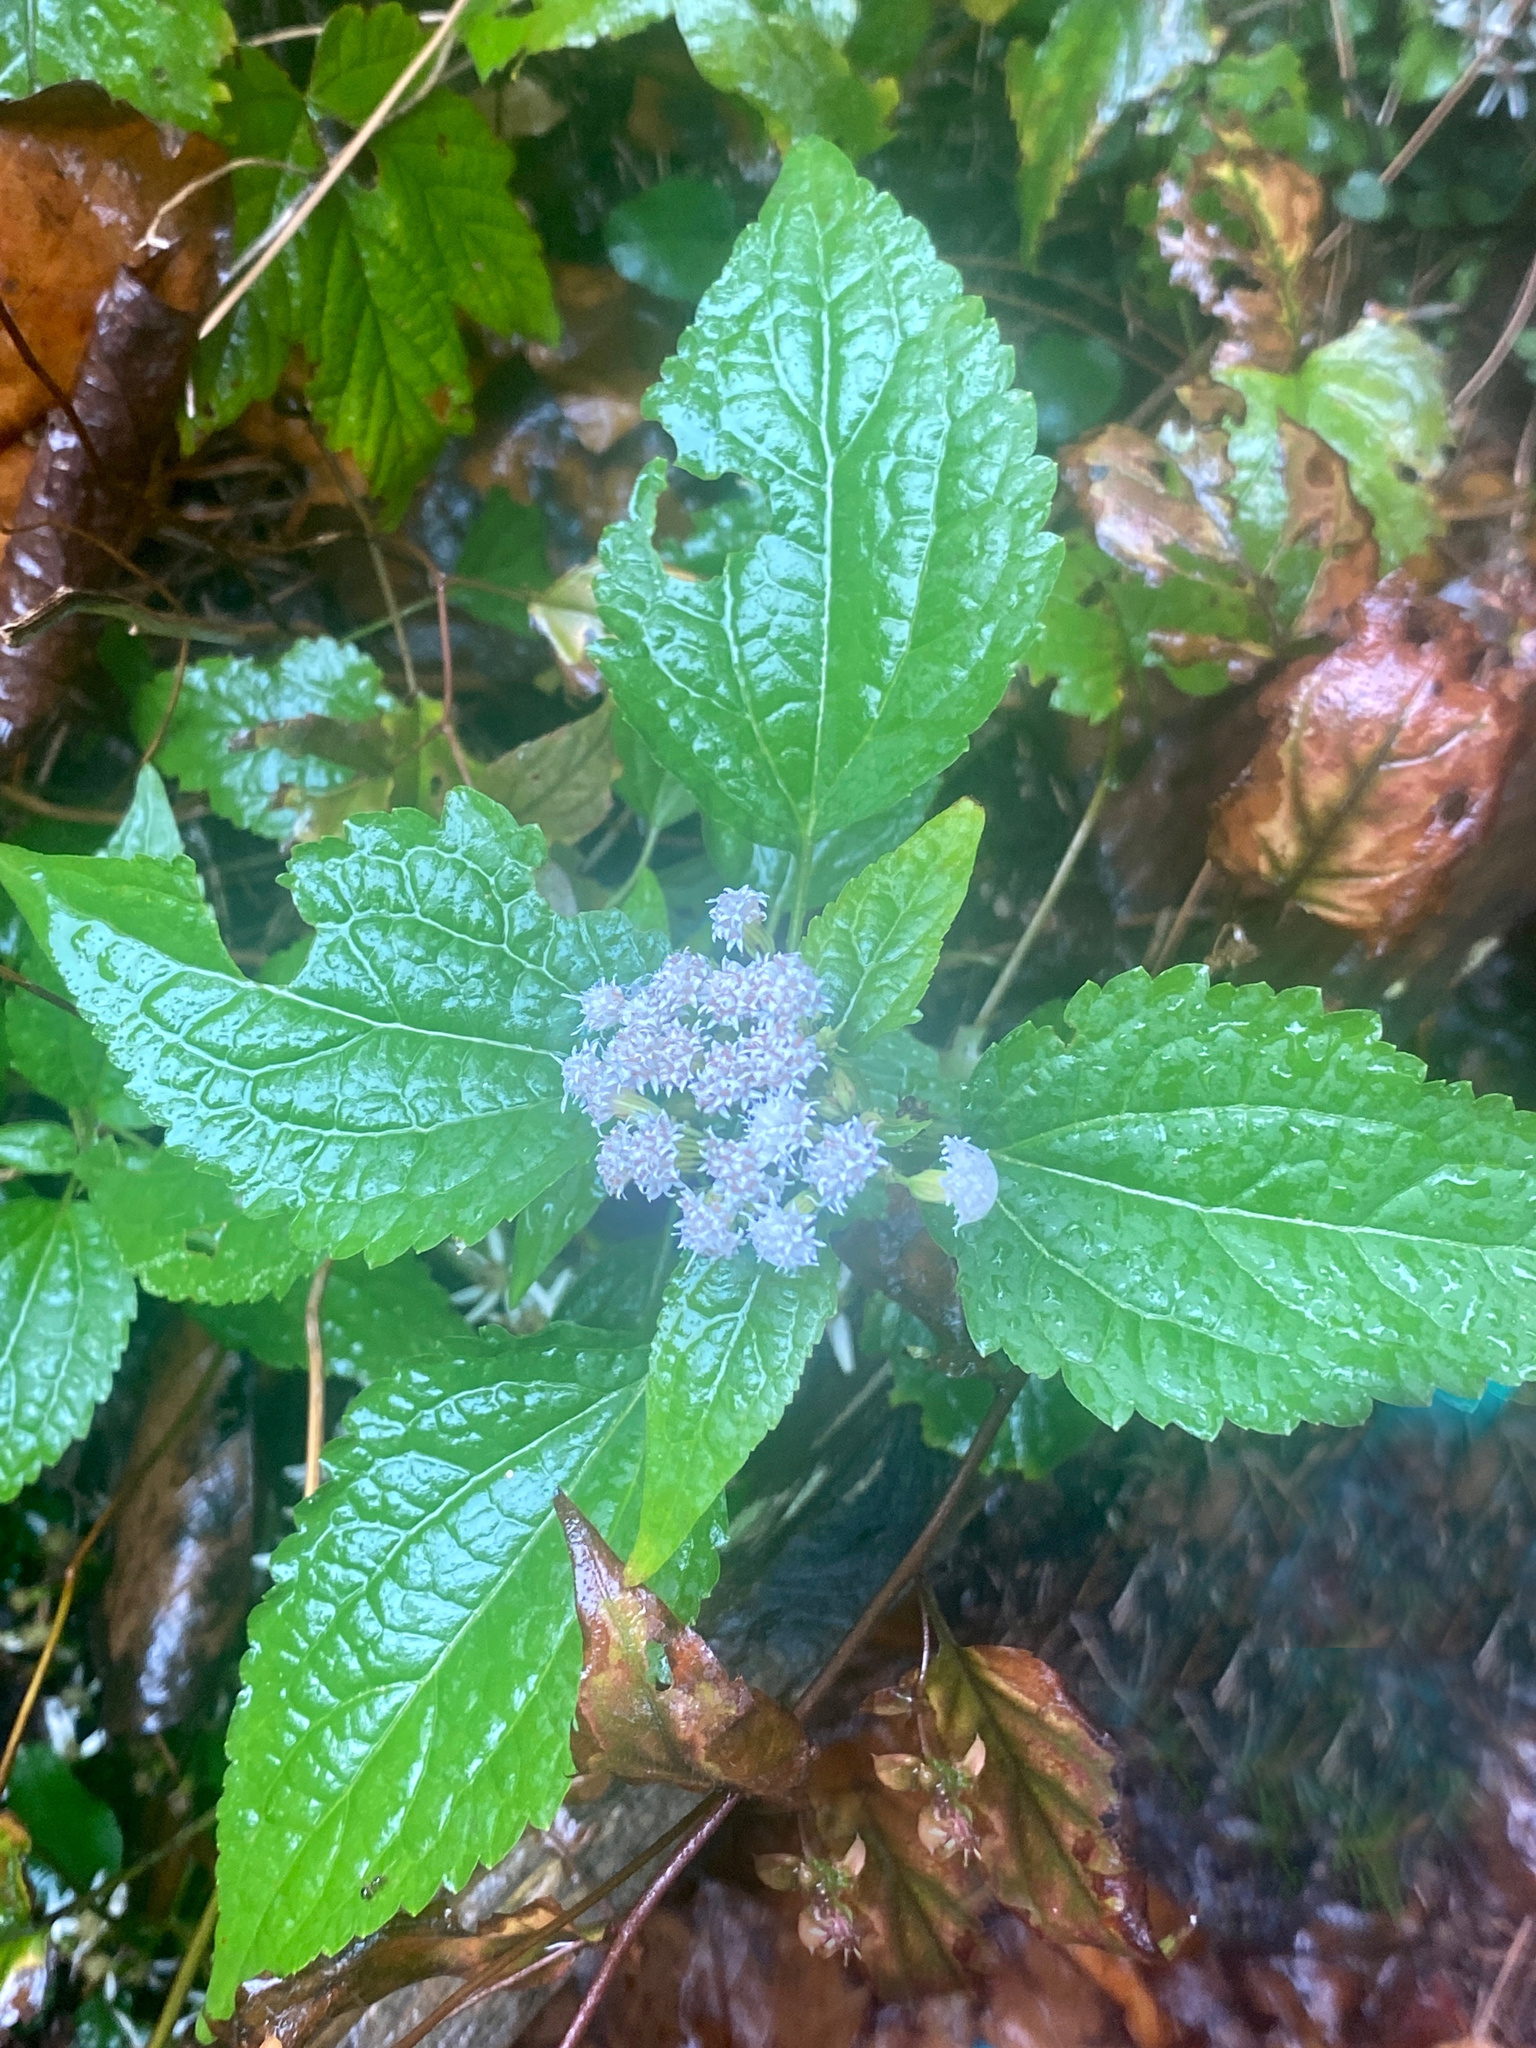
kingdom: Plantae
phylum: Tracheophyta
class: Magnoliopsida
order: Asterales
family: Asteraceae
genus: Ageratina
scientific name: Ageratina altissima
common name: White snakeroot
